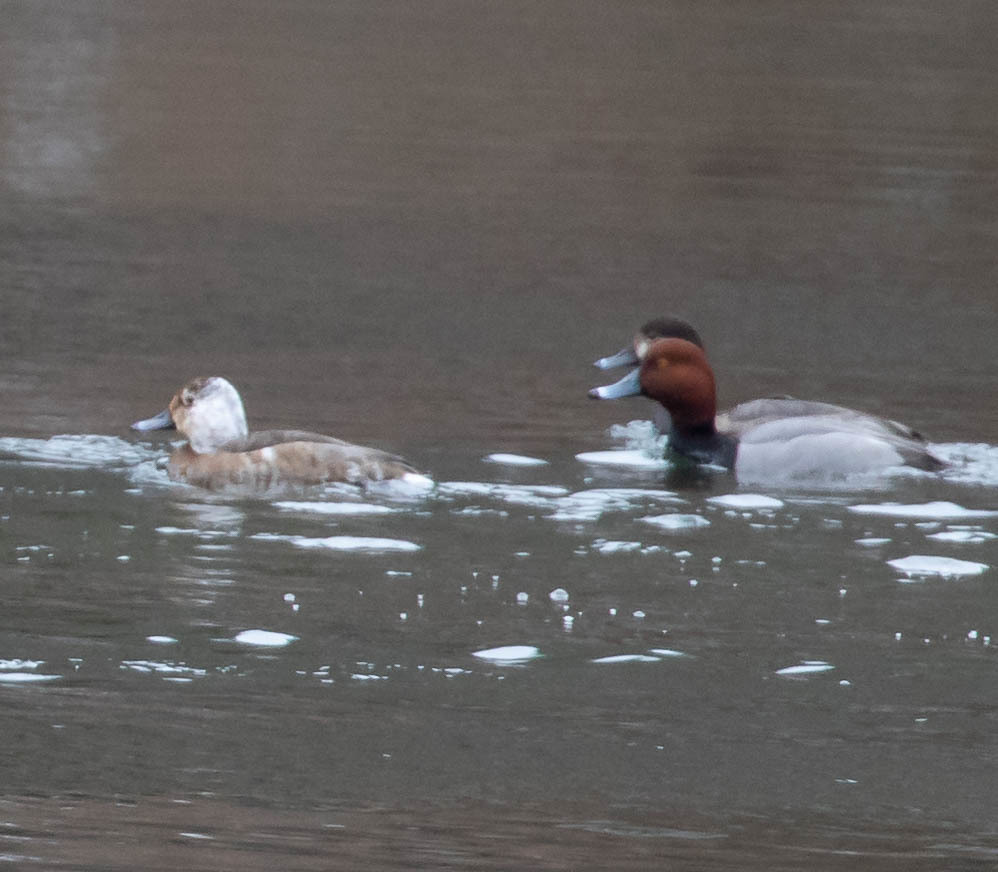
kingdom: Animalia
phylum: Chordata
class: Aves
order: Anseriformes
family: Anatidae
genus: Aythya
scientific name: Aythya americana
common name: Redhead
